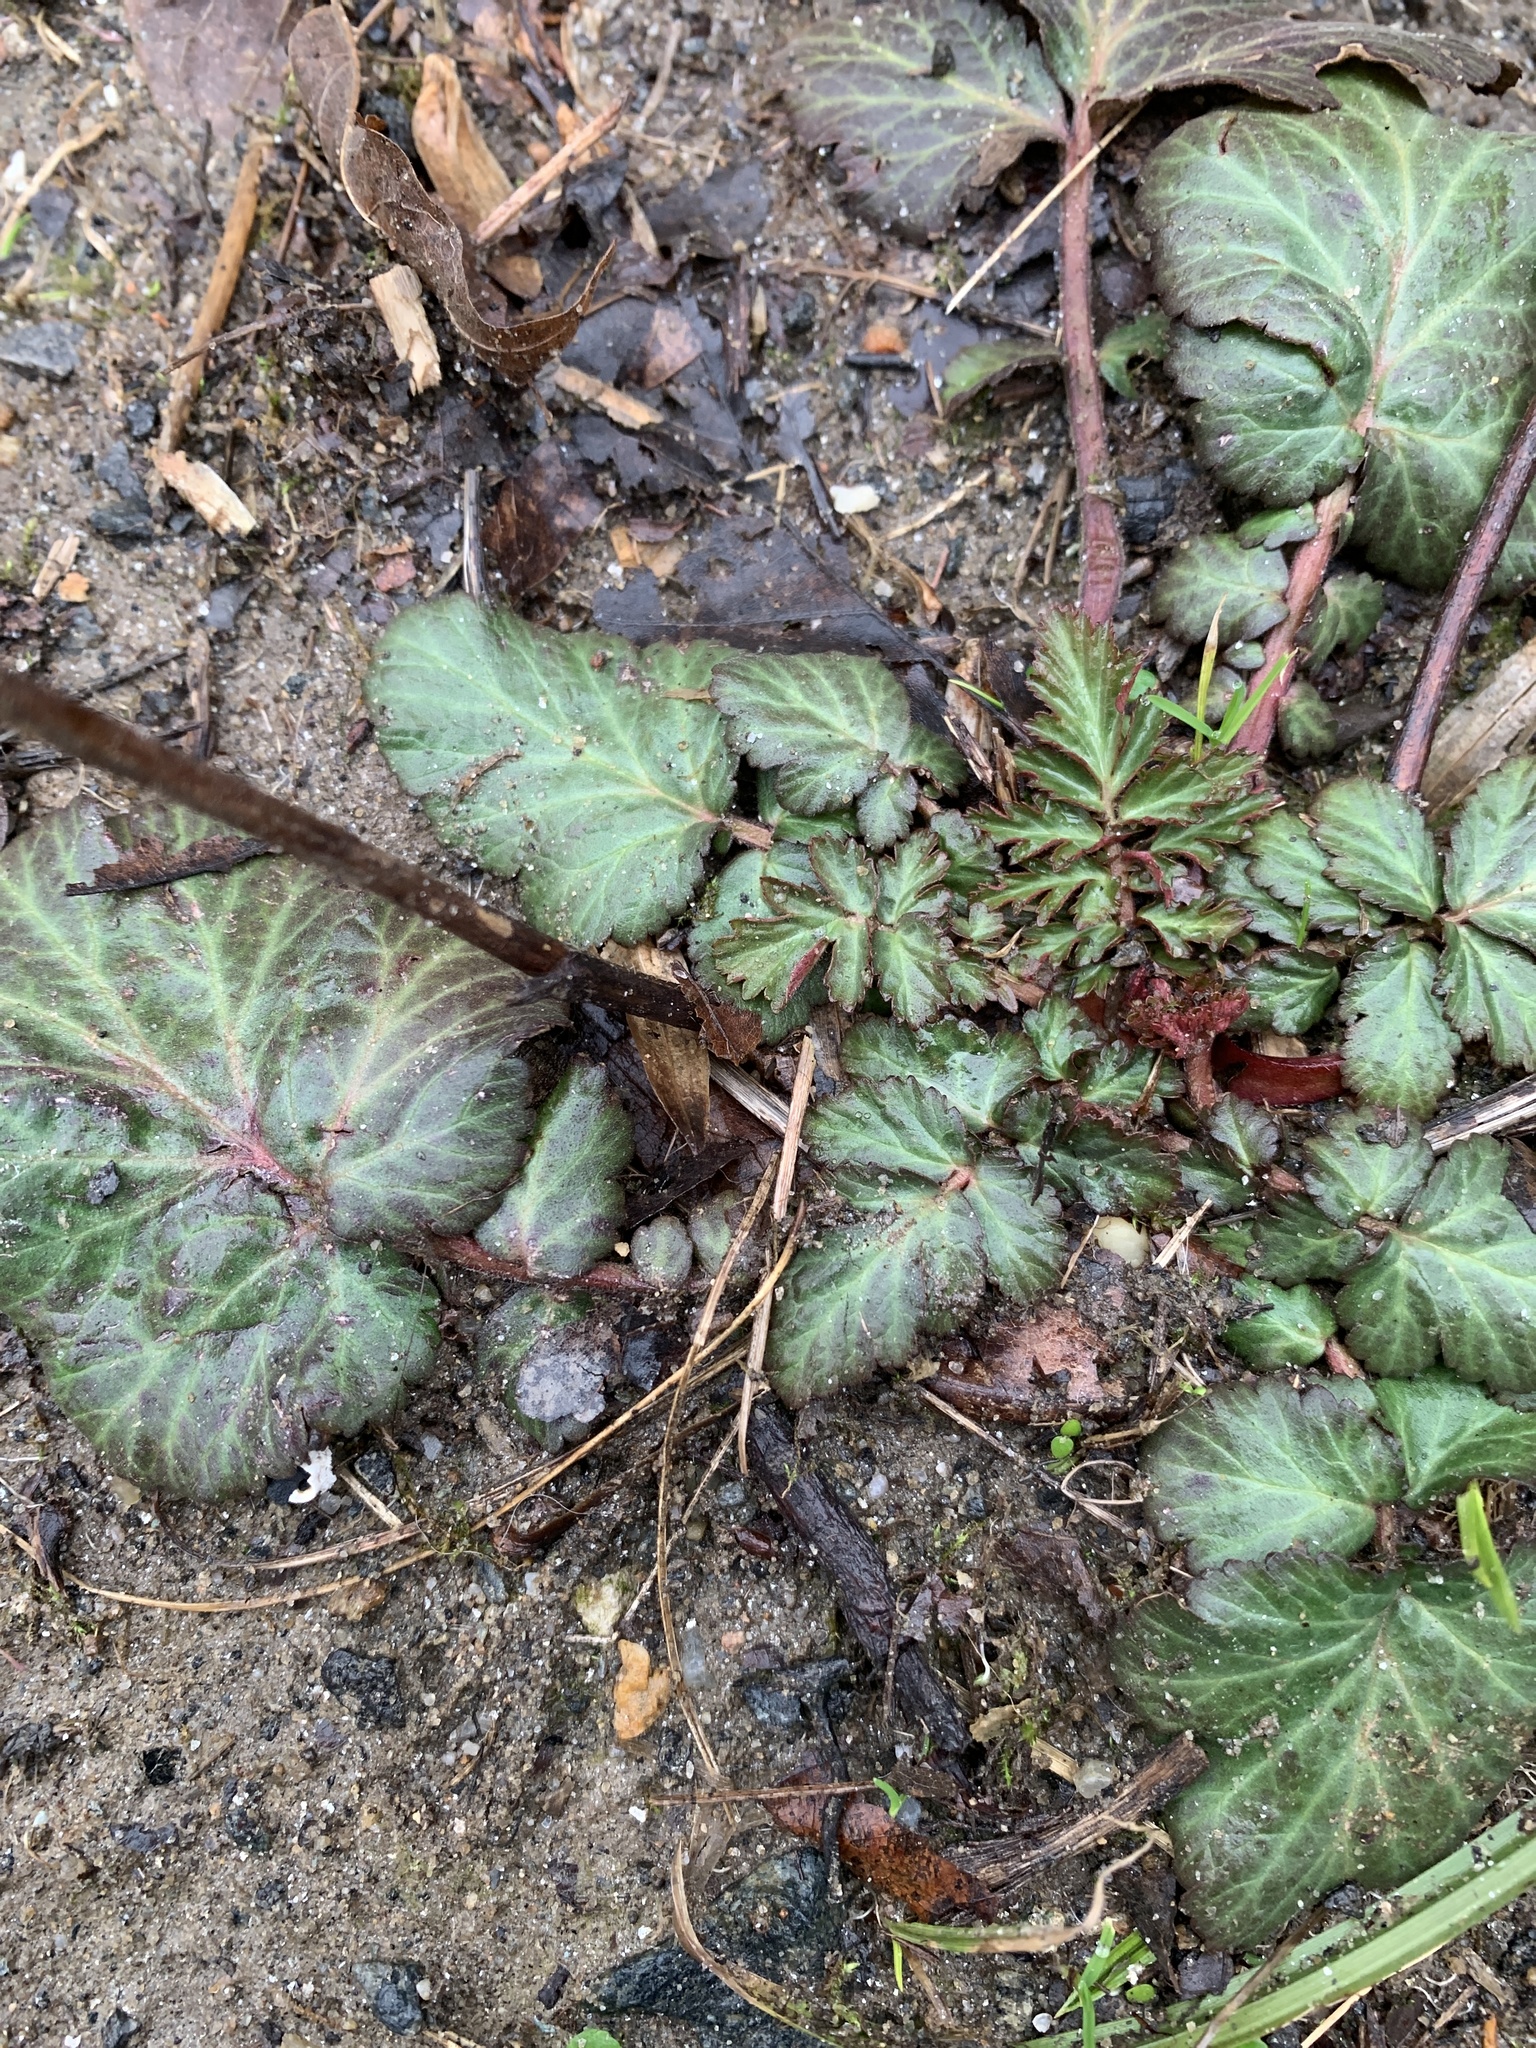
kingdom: Plantae
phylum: Tracheophyta
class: Magnoliopsida
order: Rosales
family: Rosaceae
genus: Geum
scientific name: Geum canadense
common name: White avens
